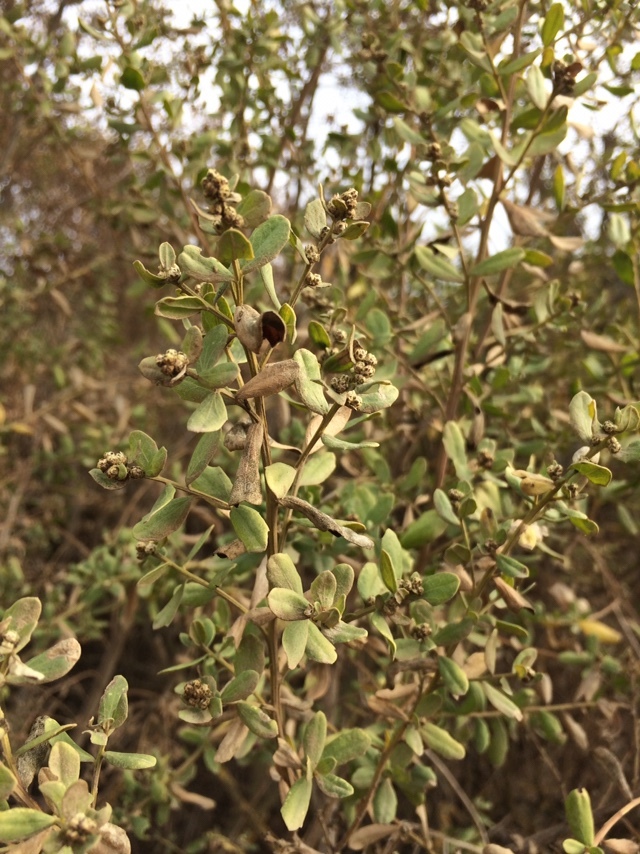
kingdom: Plantae
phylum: Tracheophyta
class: Magnoliopsida
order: Asterales
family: Asteraceae
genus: Baccharis
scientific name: Baccharis pilularis
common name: Coyotebrush
